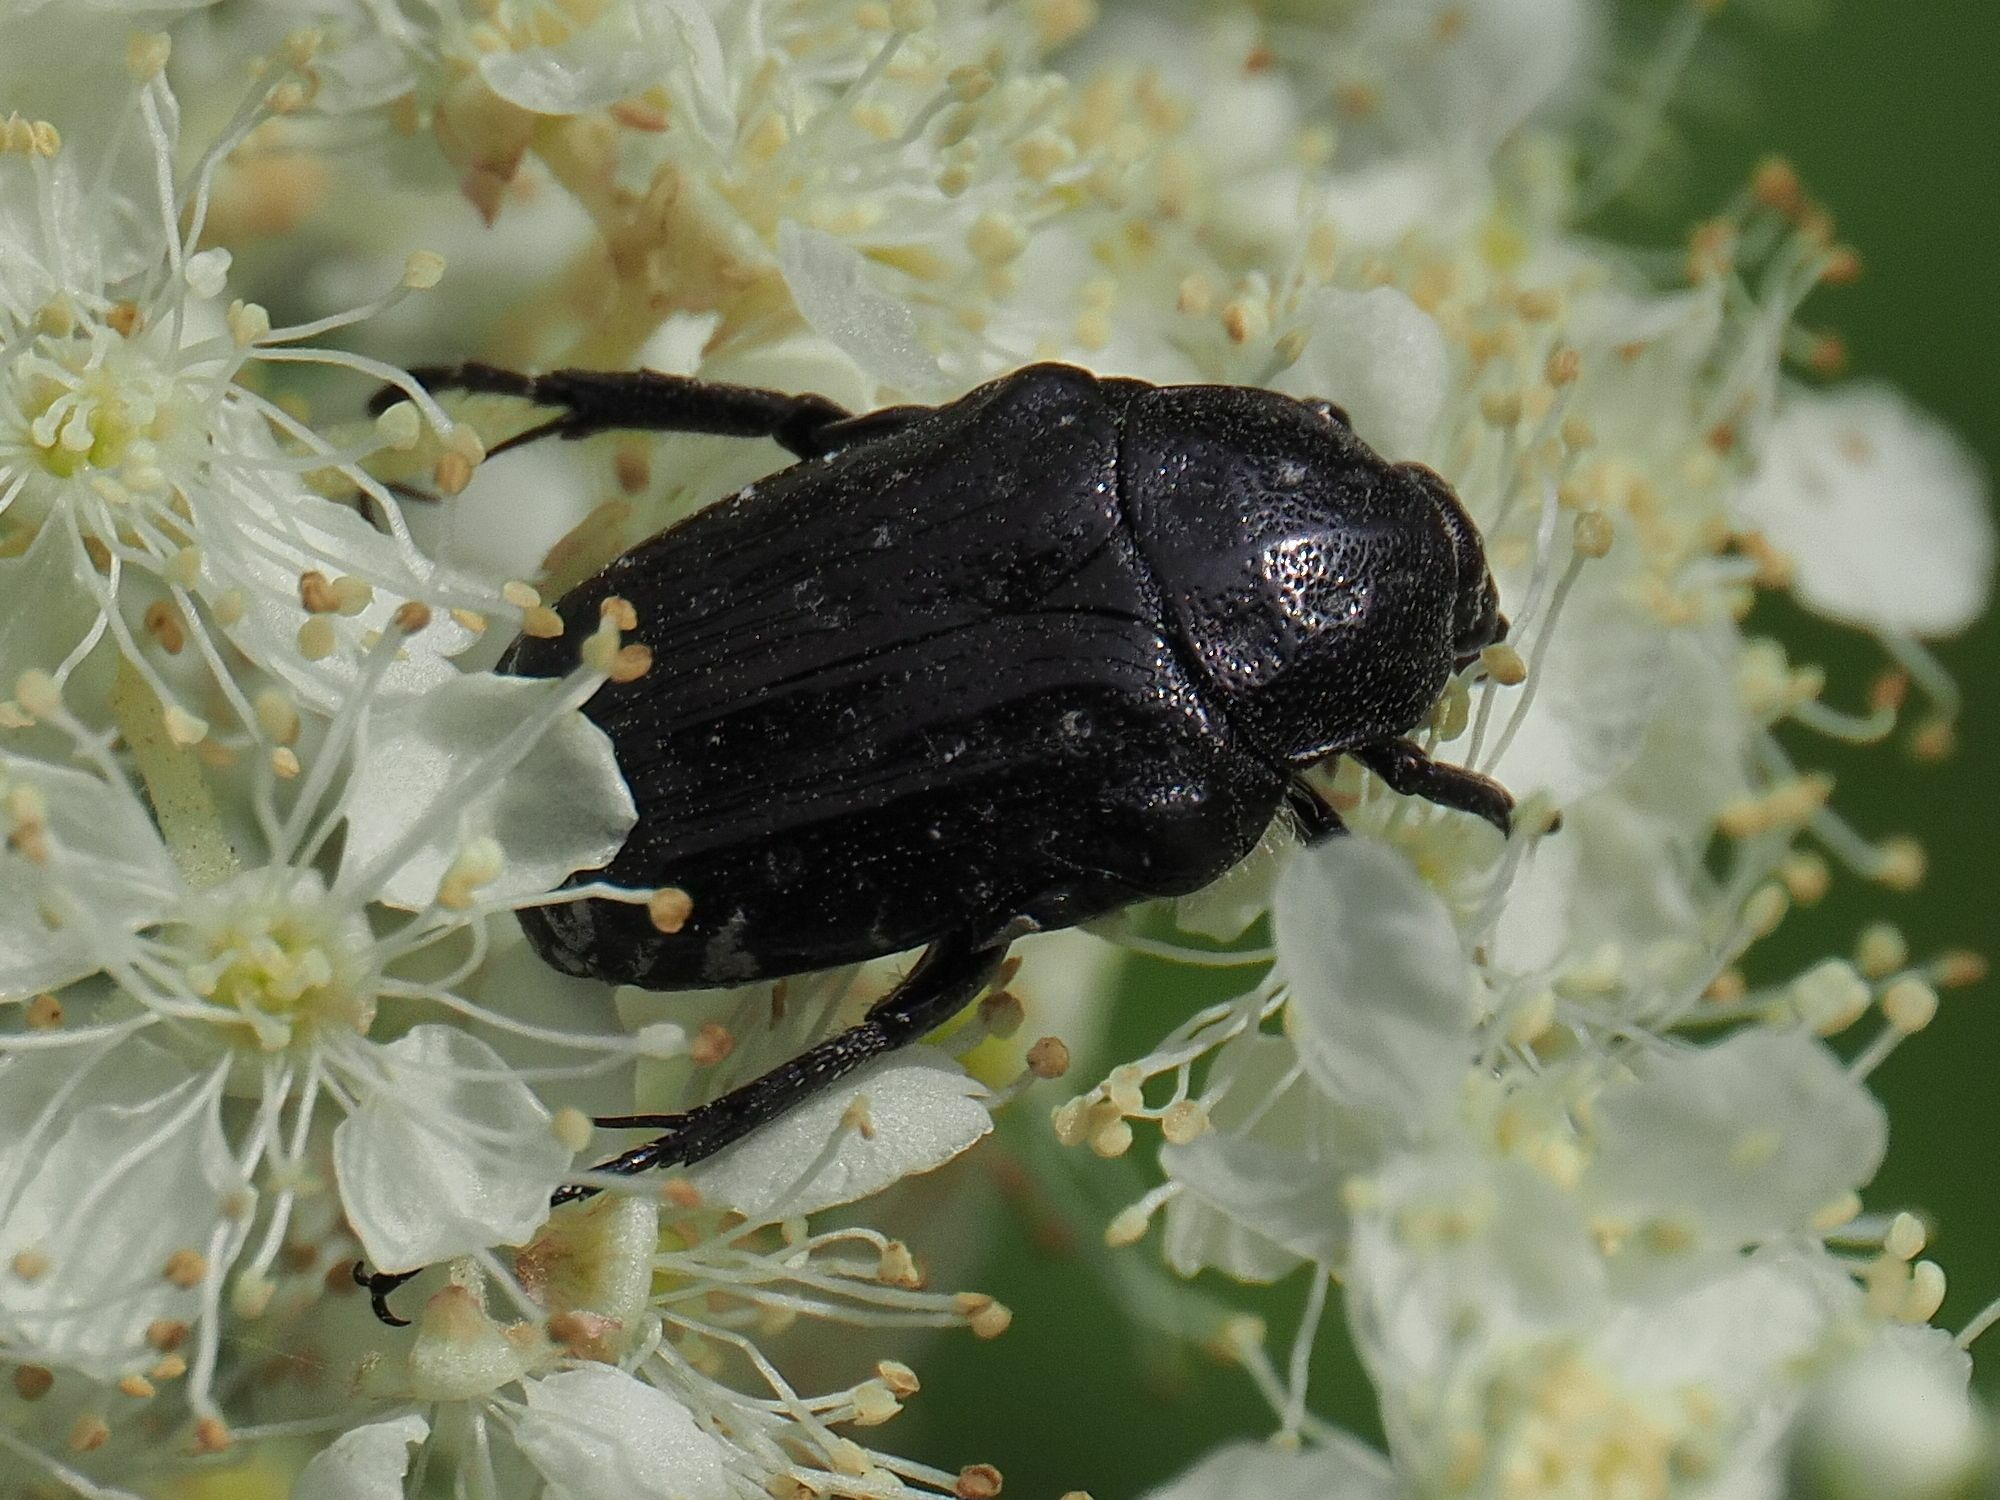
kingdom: Animalia
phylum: Arthropoda
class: Insecta
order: Coleoptera
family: Scarabaeidae
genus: Oxythyrea
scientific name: Oxythyrea funesta
